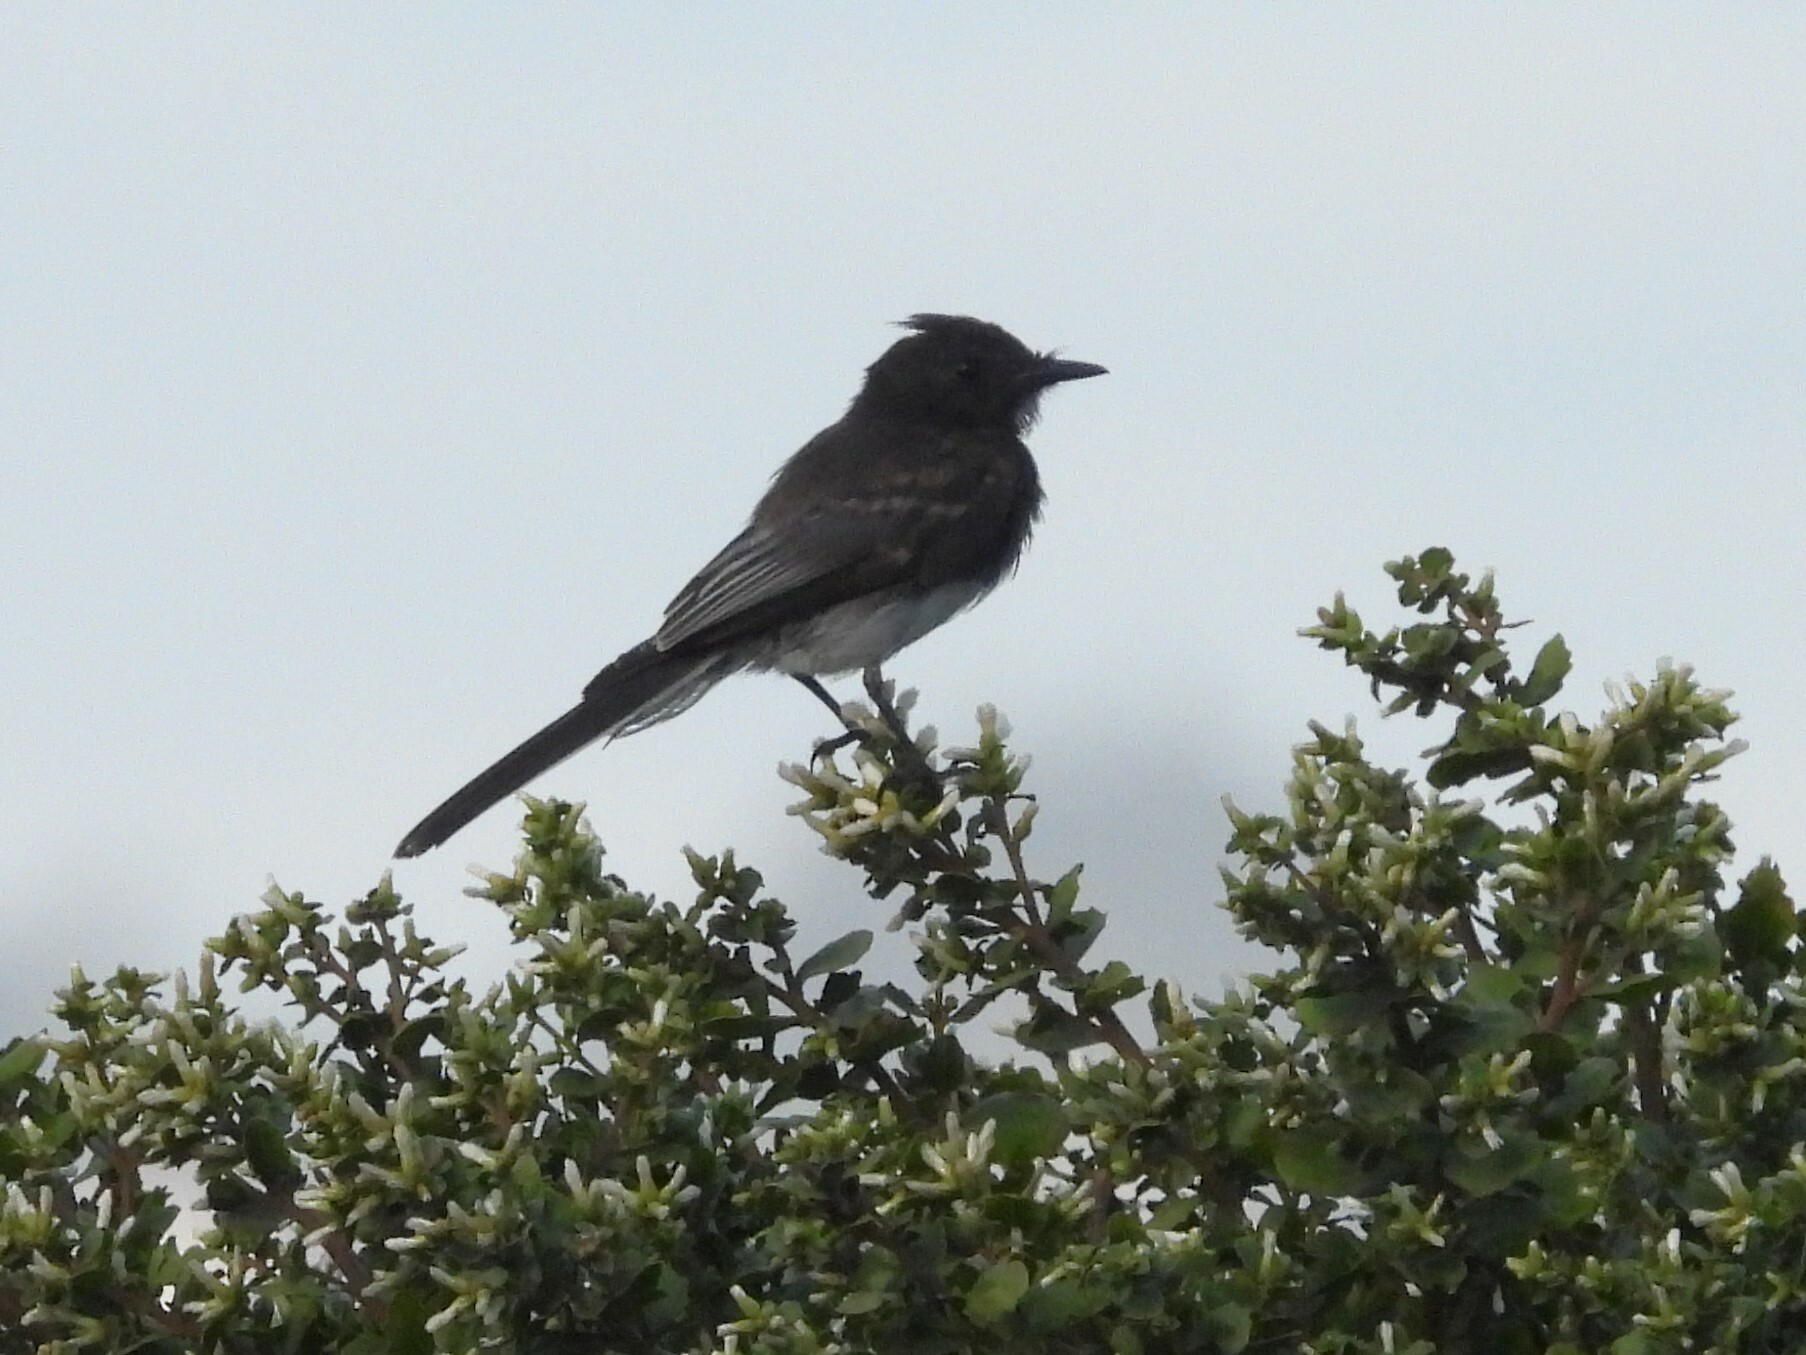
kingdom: Animalia
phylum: Chordata
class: Aves
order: Passeriformes
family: Tyrannidae
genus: Sayornis
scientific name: Sayornis nigricans
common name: Black phoebe
